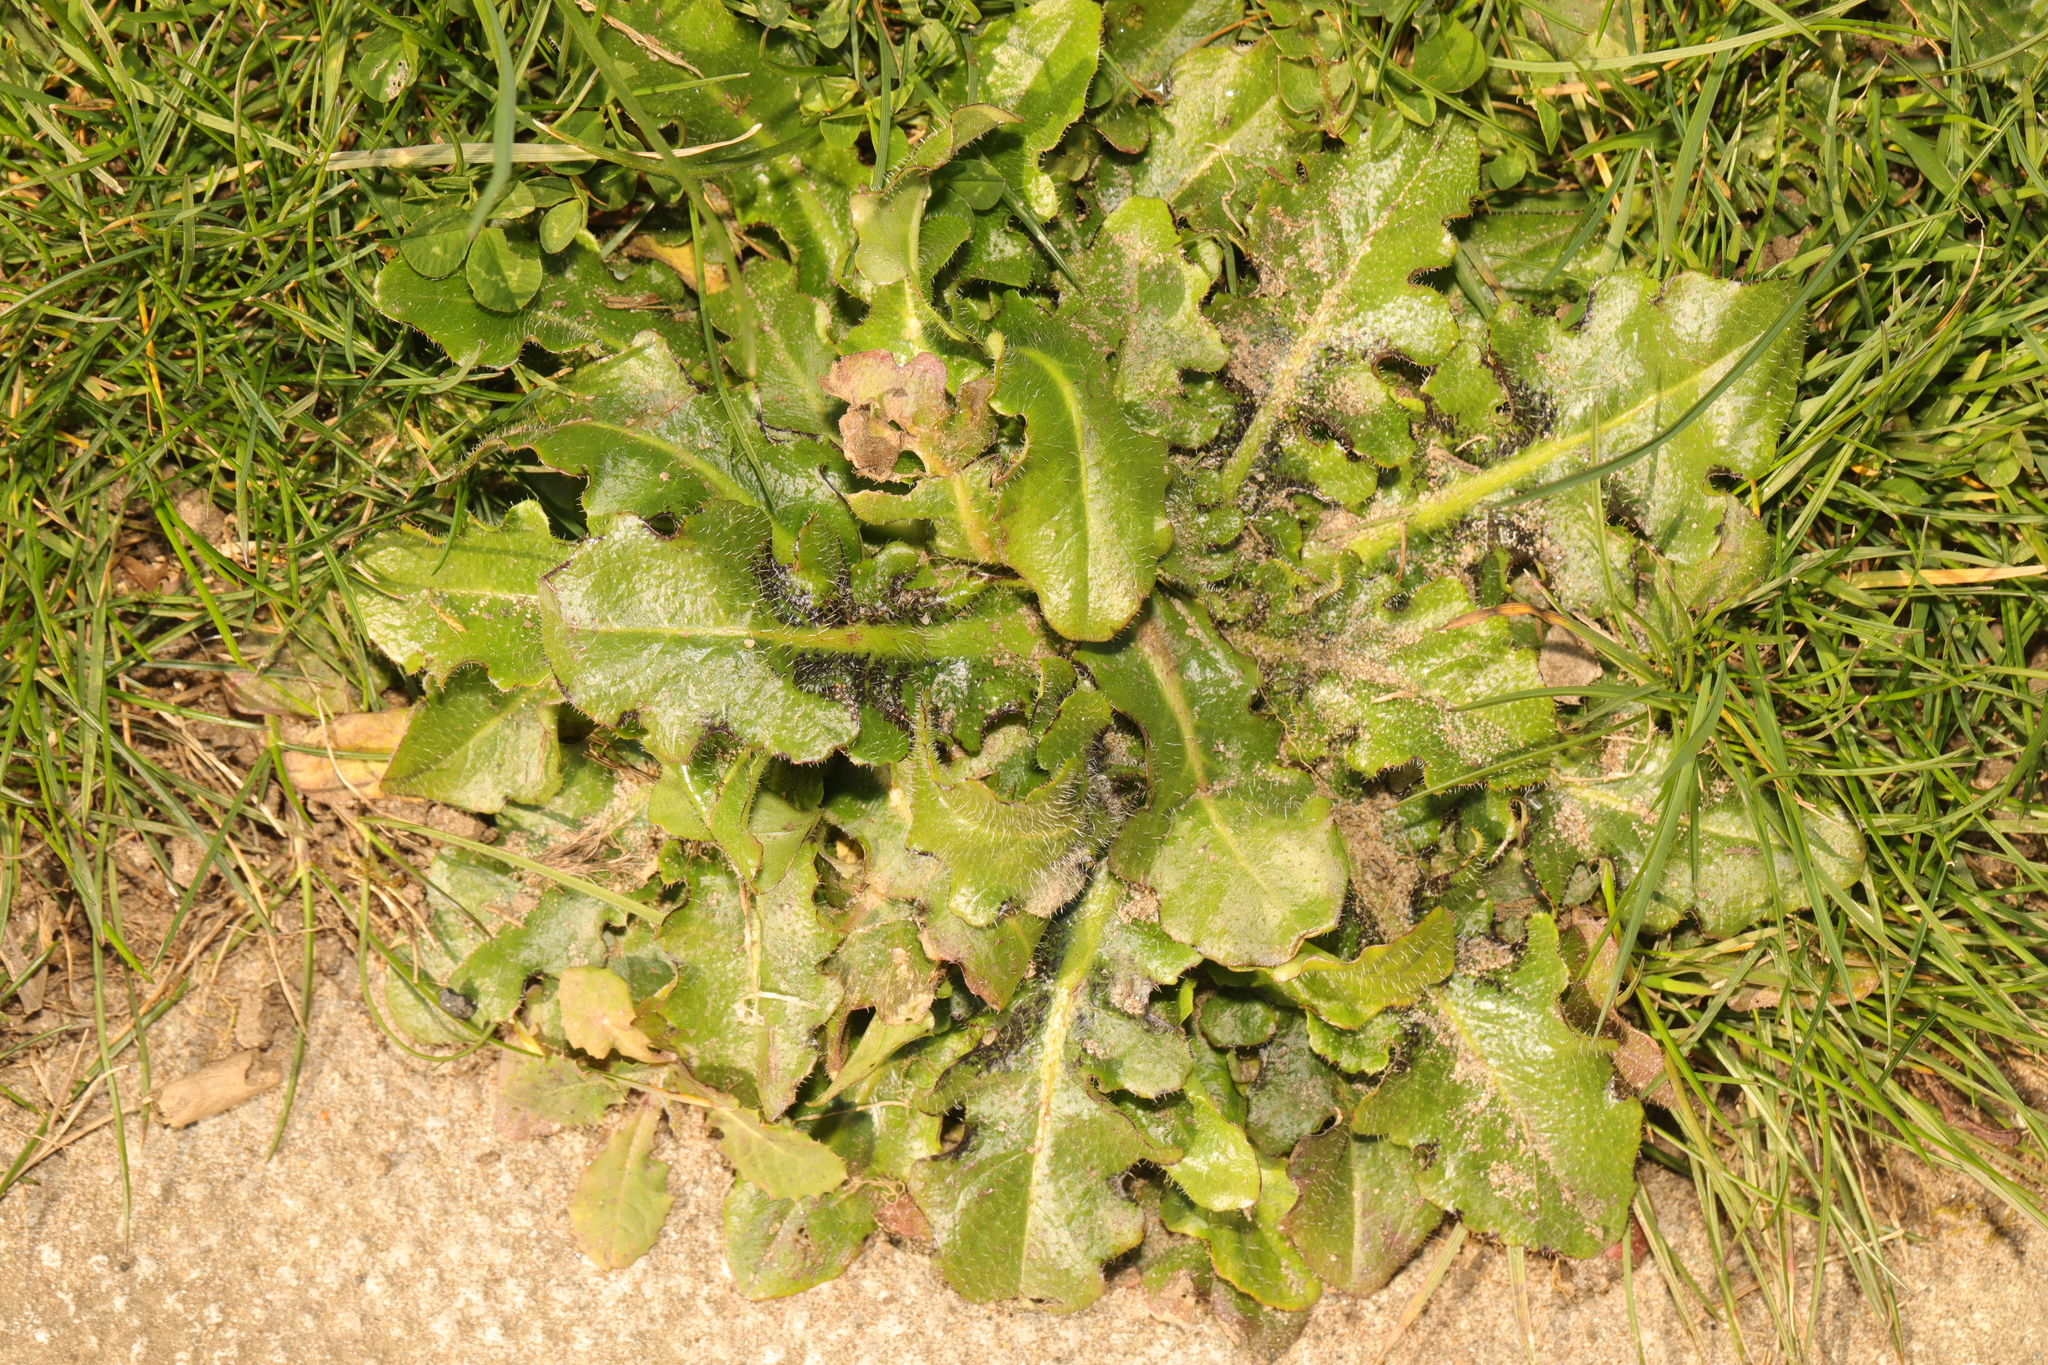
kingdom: Plantae
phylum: Tracheophyta
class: Magnoliopsida
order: Asterales
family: Asteraceae
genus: Hypochaeris
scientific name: Hypochaeris radicata
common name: Flatweed
